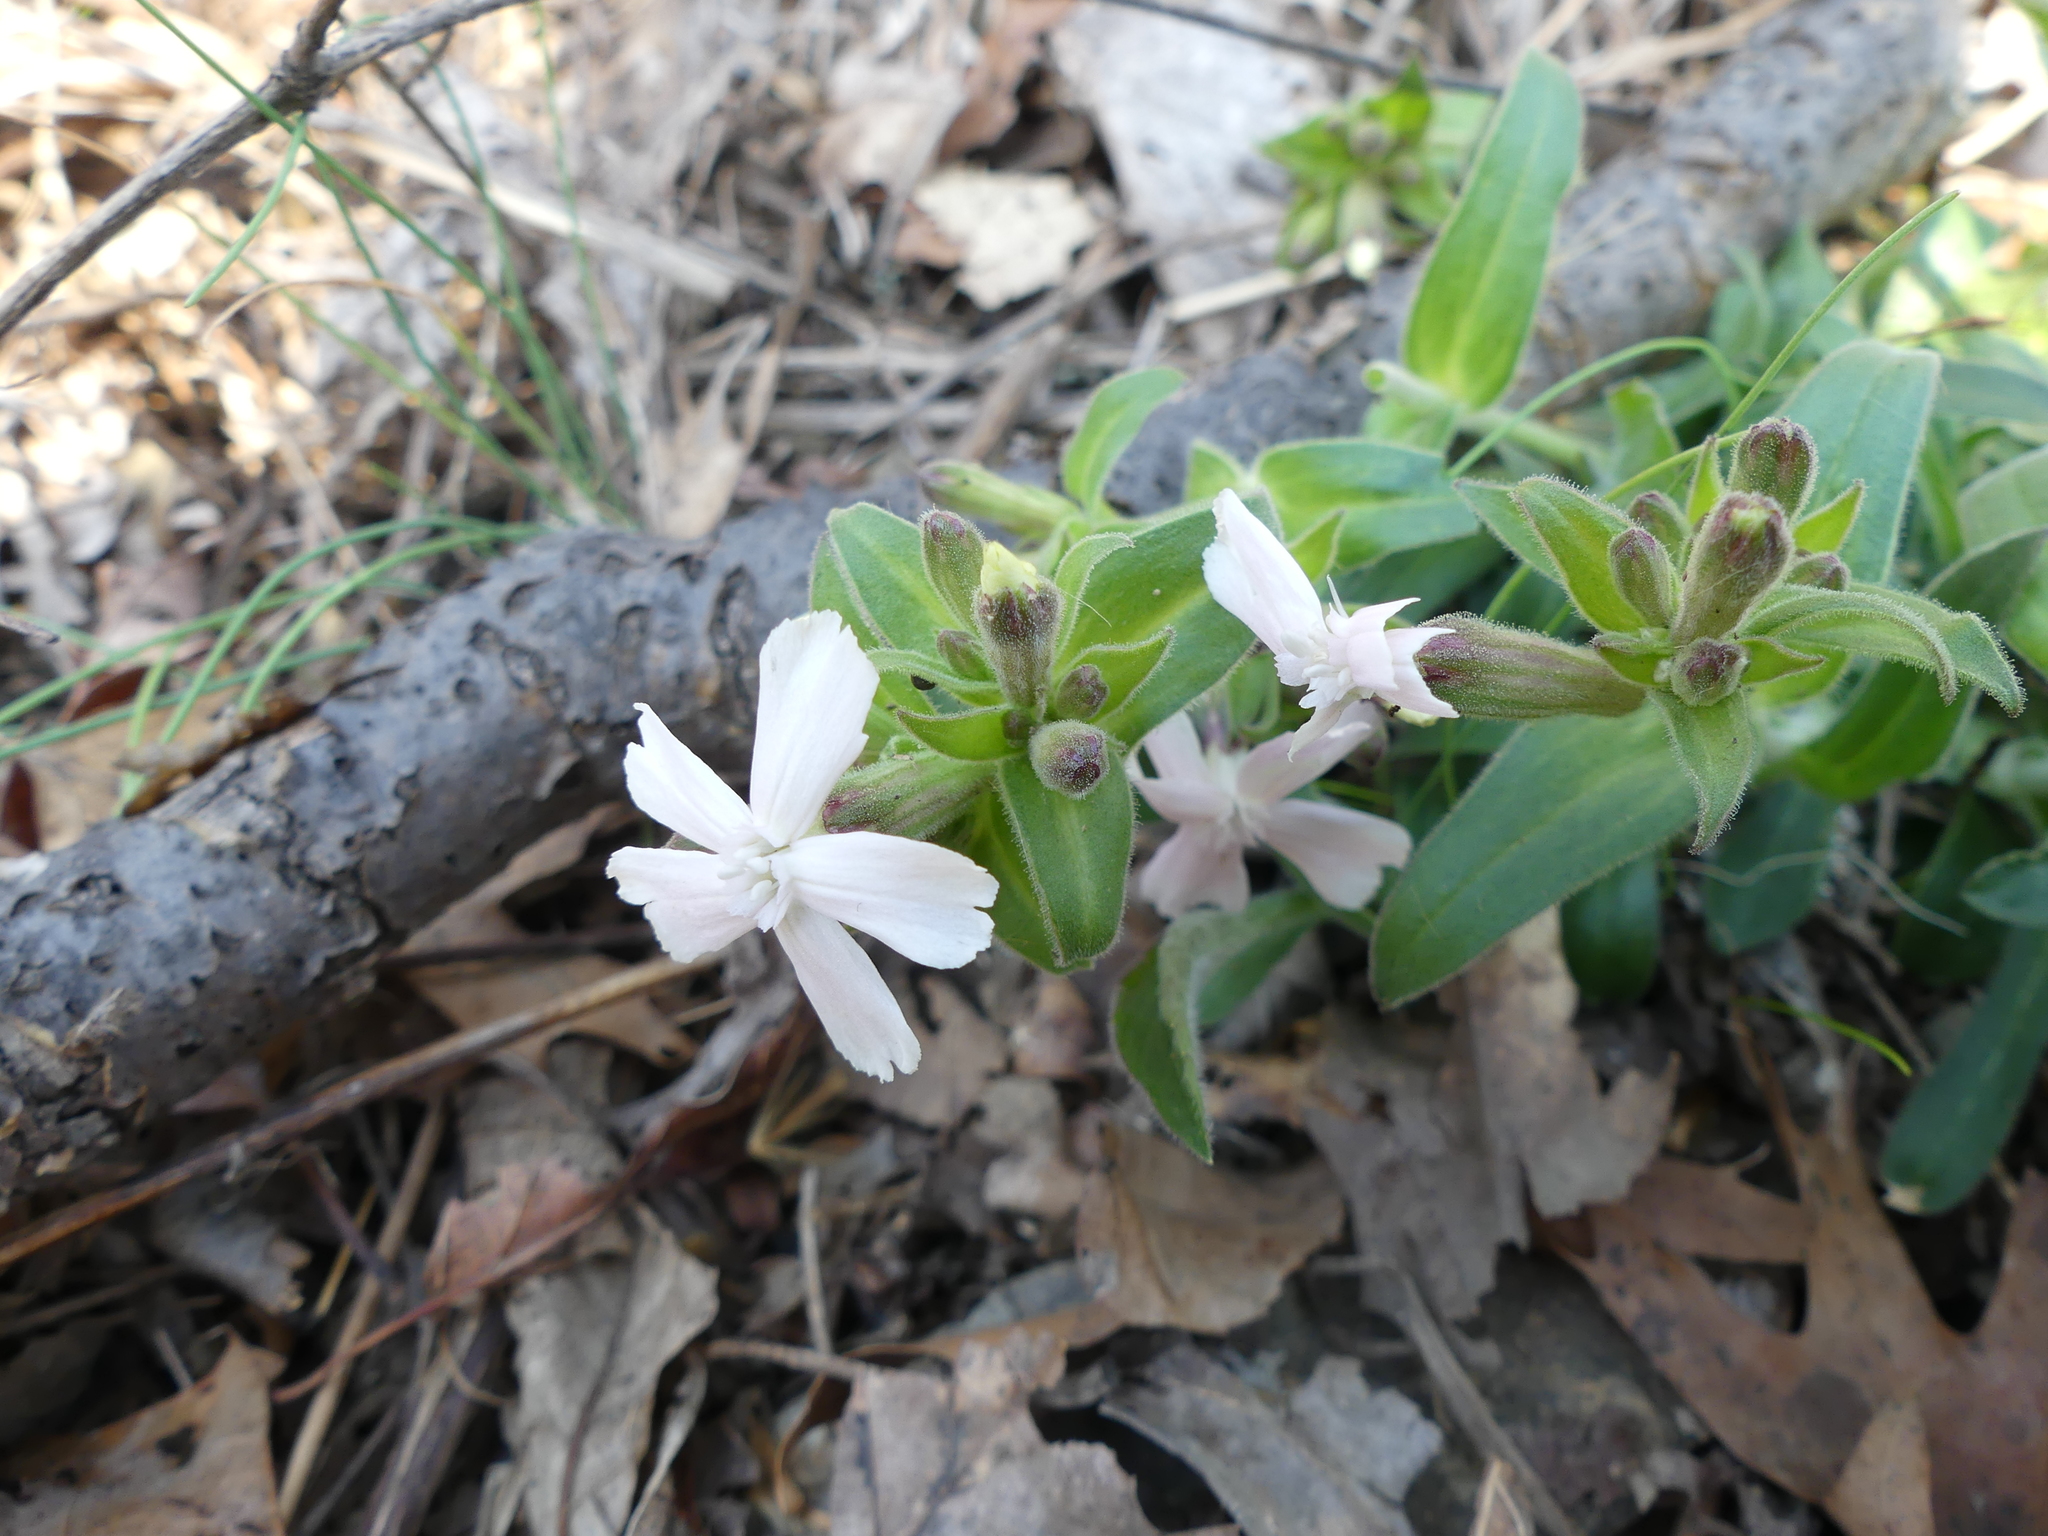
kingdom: Plantae
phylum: Tracheophyta
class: Magnoliopsida
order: Caryophyllales
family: Caryophyllaceae
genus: Silene
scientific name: Silene caroliniana
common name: Sticky catchfly
